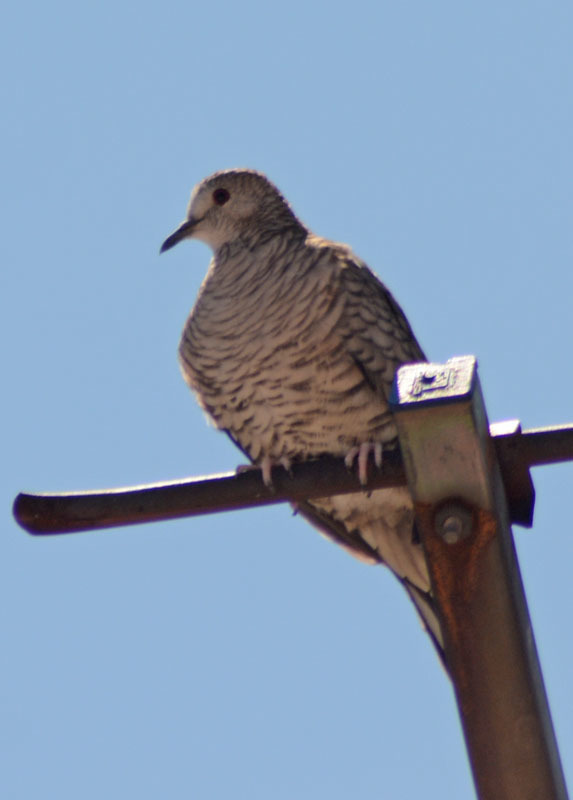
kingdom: Animalia
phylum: Chordata
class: Aves
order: Columbiformes
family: Columbidae
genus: Columbina
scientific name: Columbina inca
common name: Inca dove
